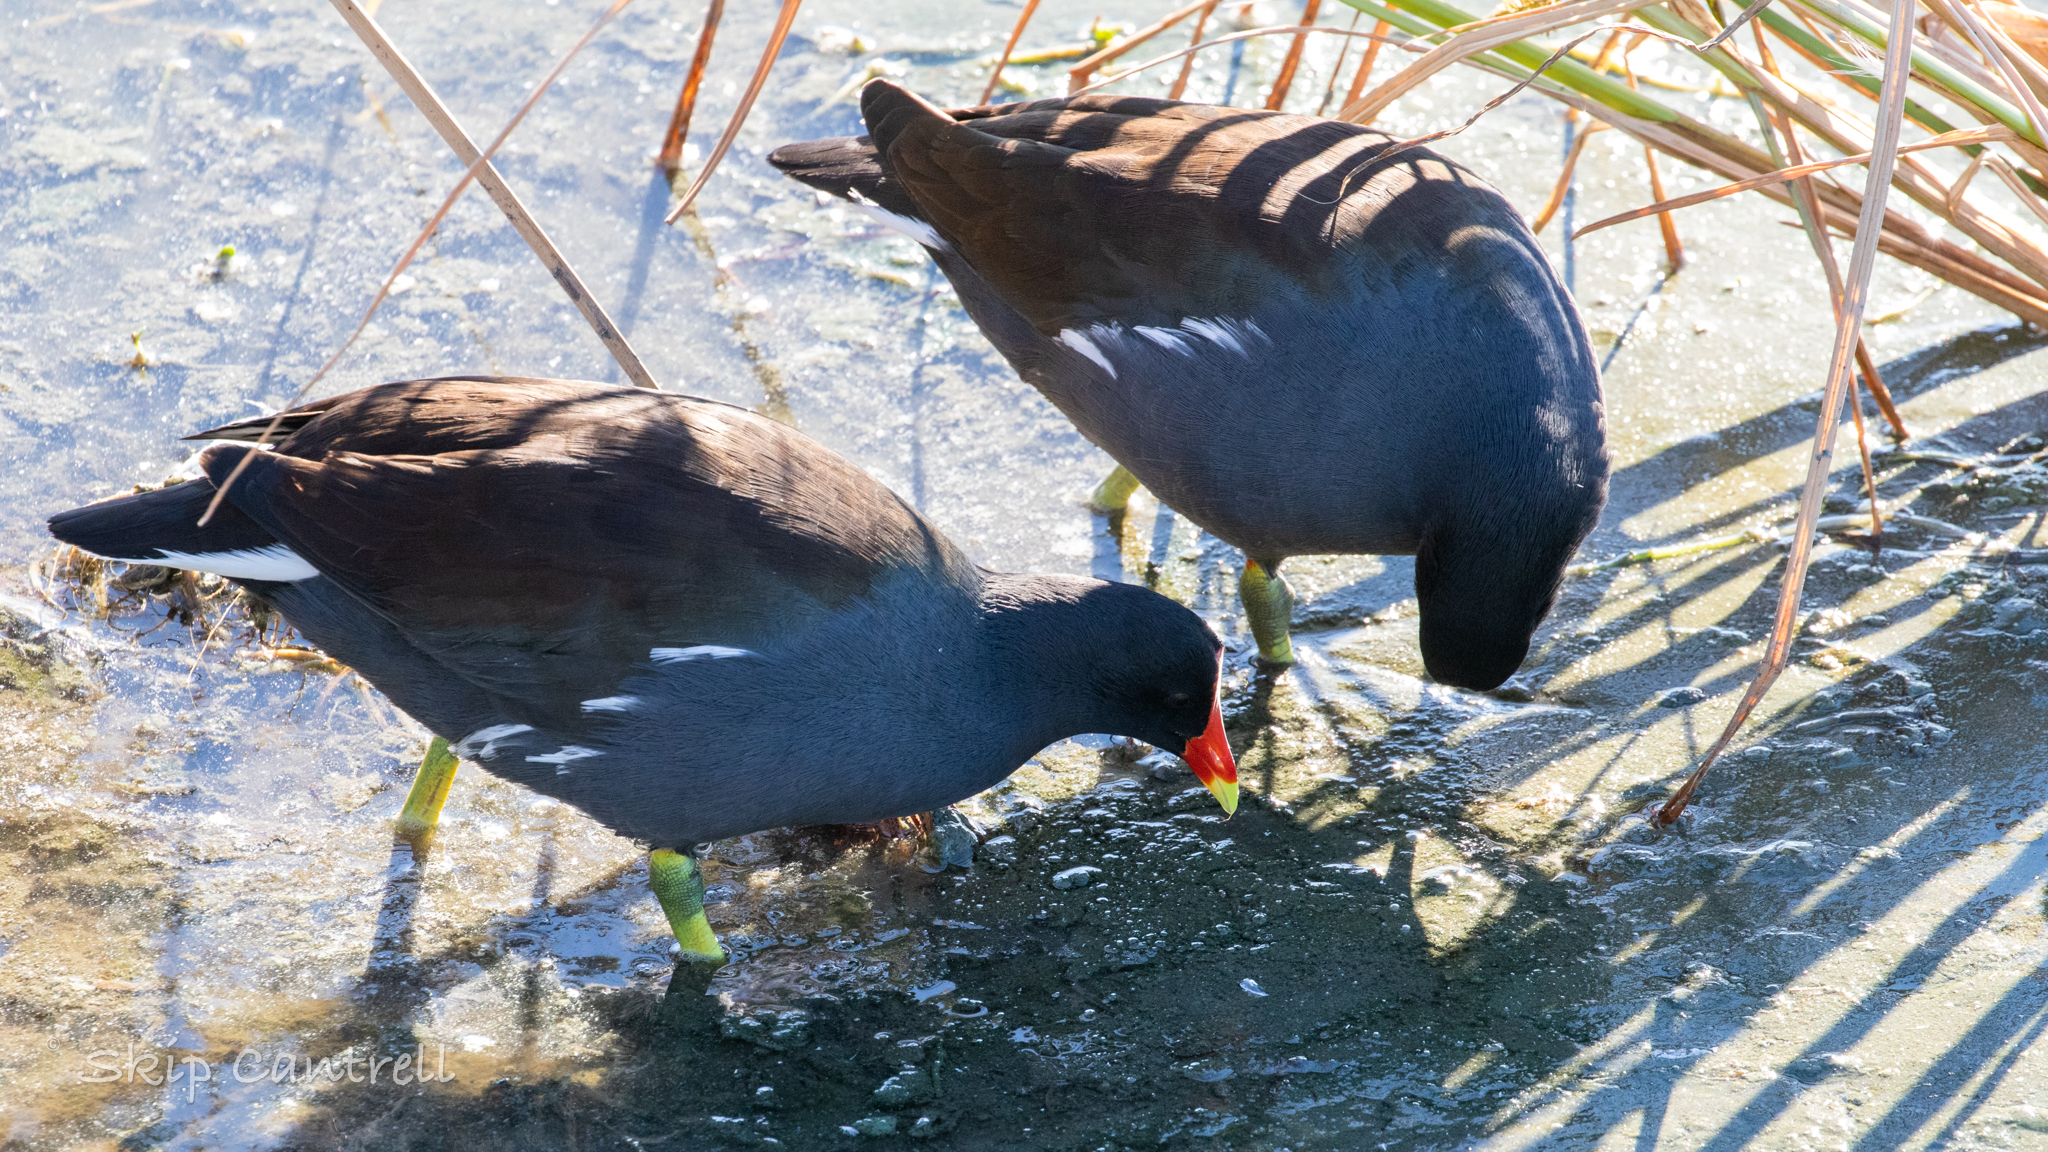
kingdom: Animalia
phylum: Chordata
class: Aves
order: Gruiformes
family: Rallidae
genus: Gallinula
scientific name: Gallinula chloropus
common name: Common moorhen
